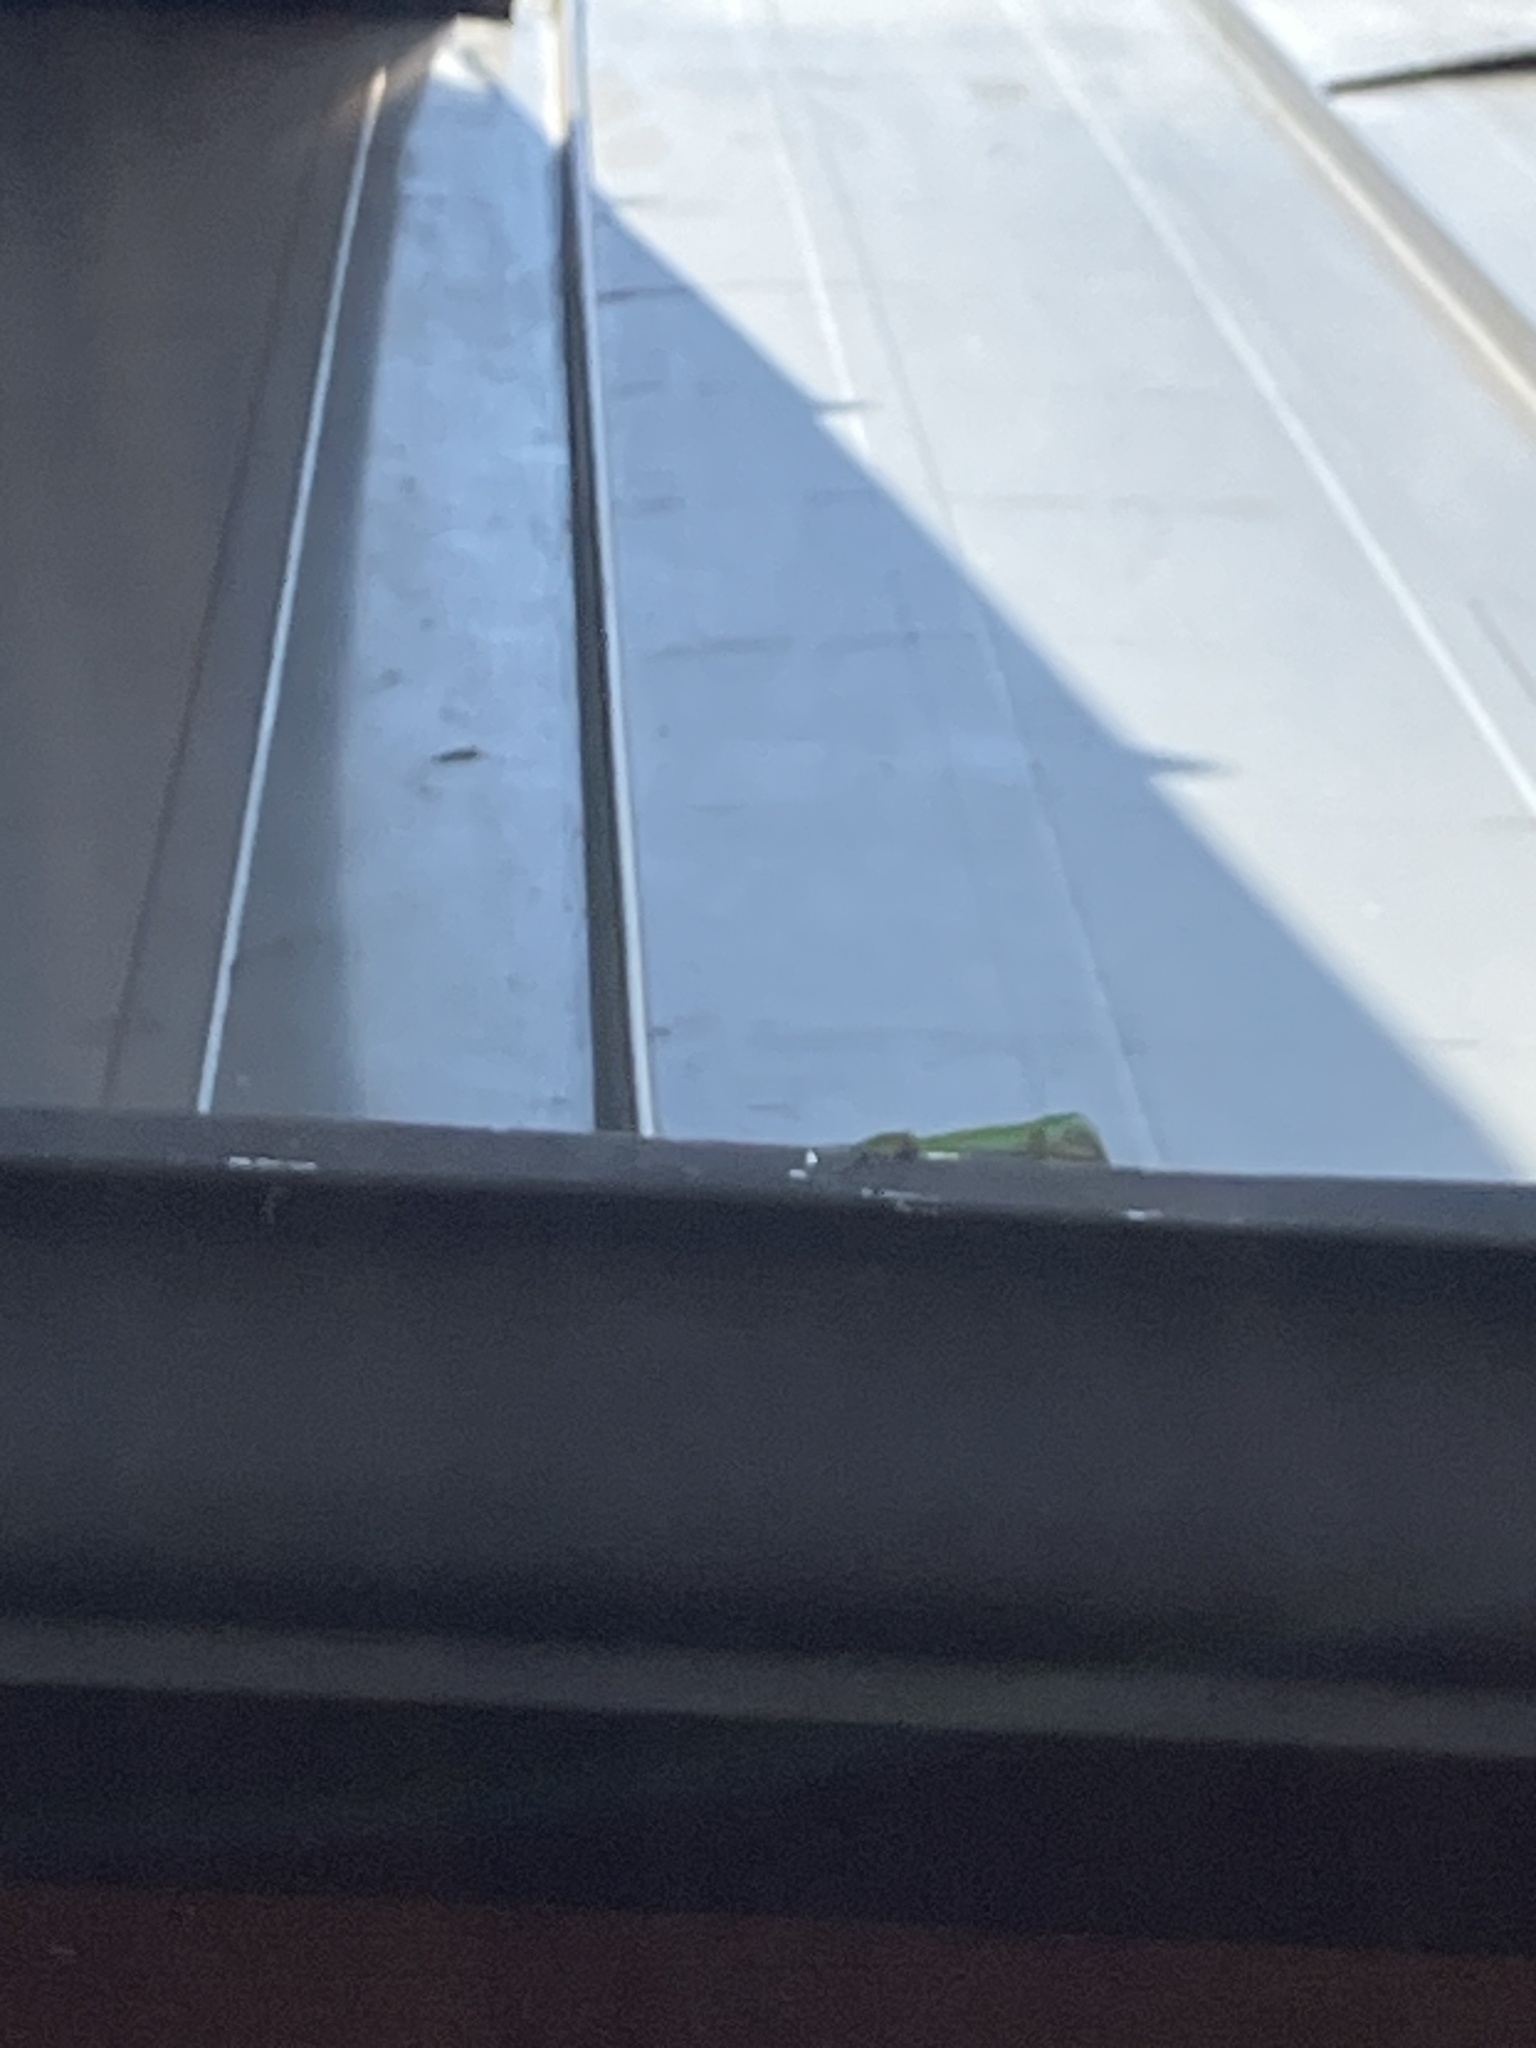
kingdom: Animalia
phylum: Chordata
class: Squamata
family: Dactyloidae
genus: Anolis
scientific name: Anolis carolinensis
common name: Green anole
